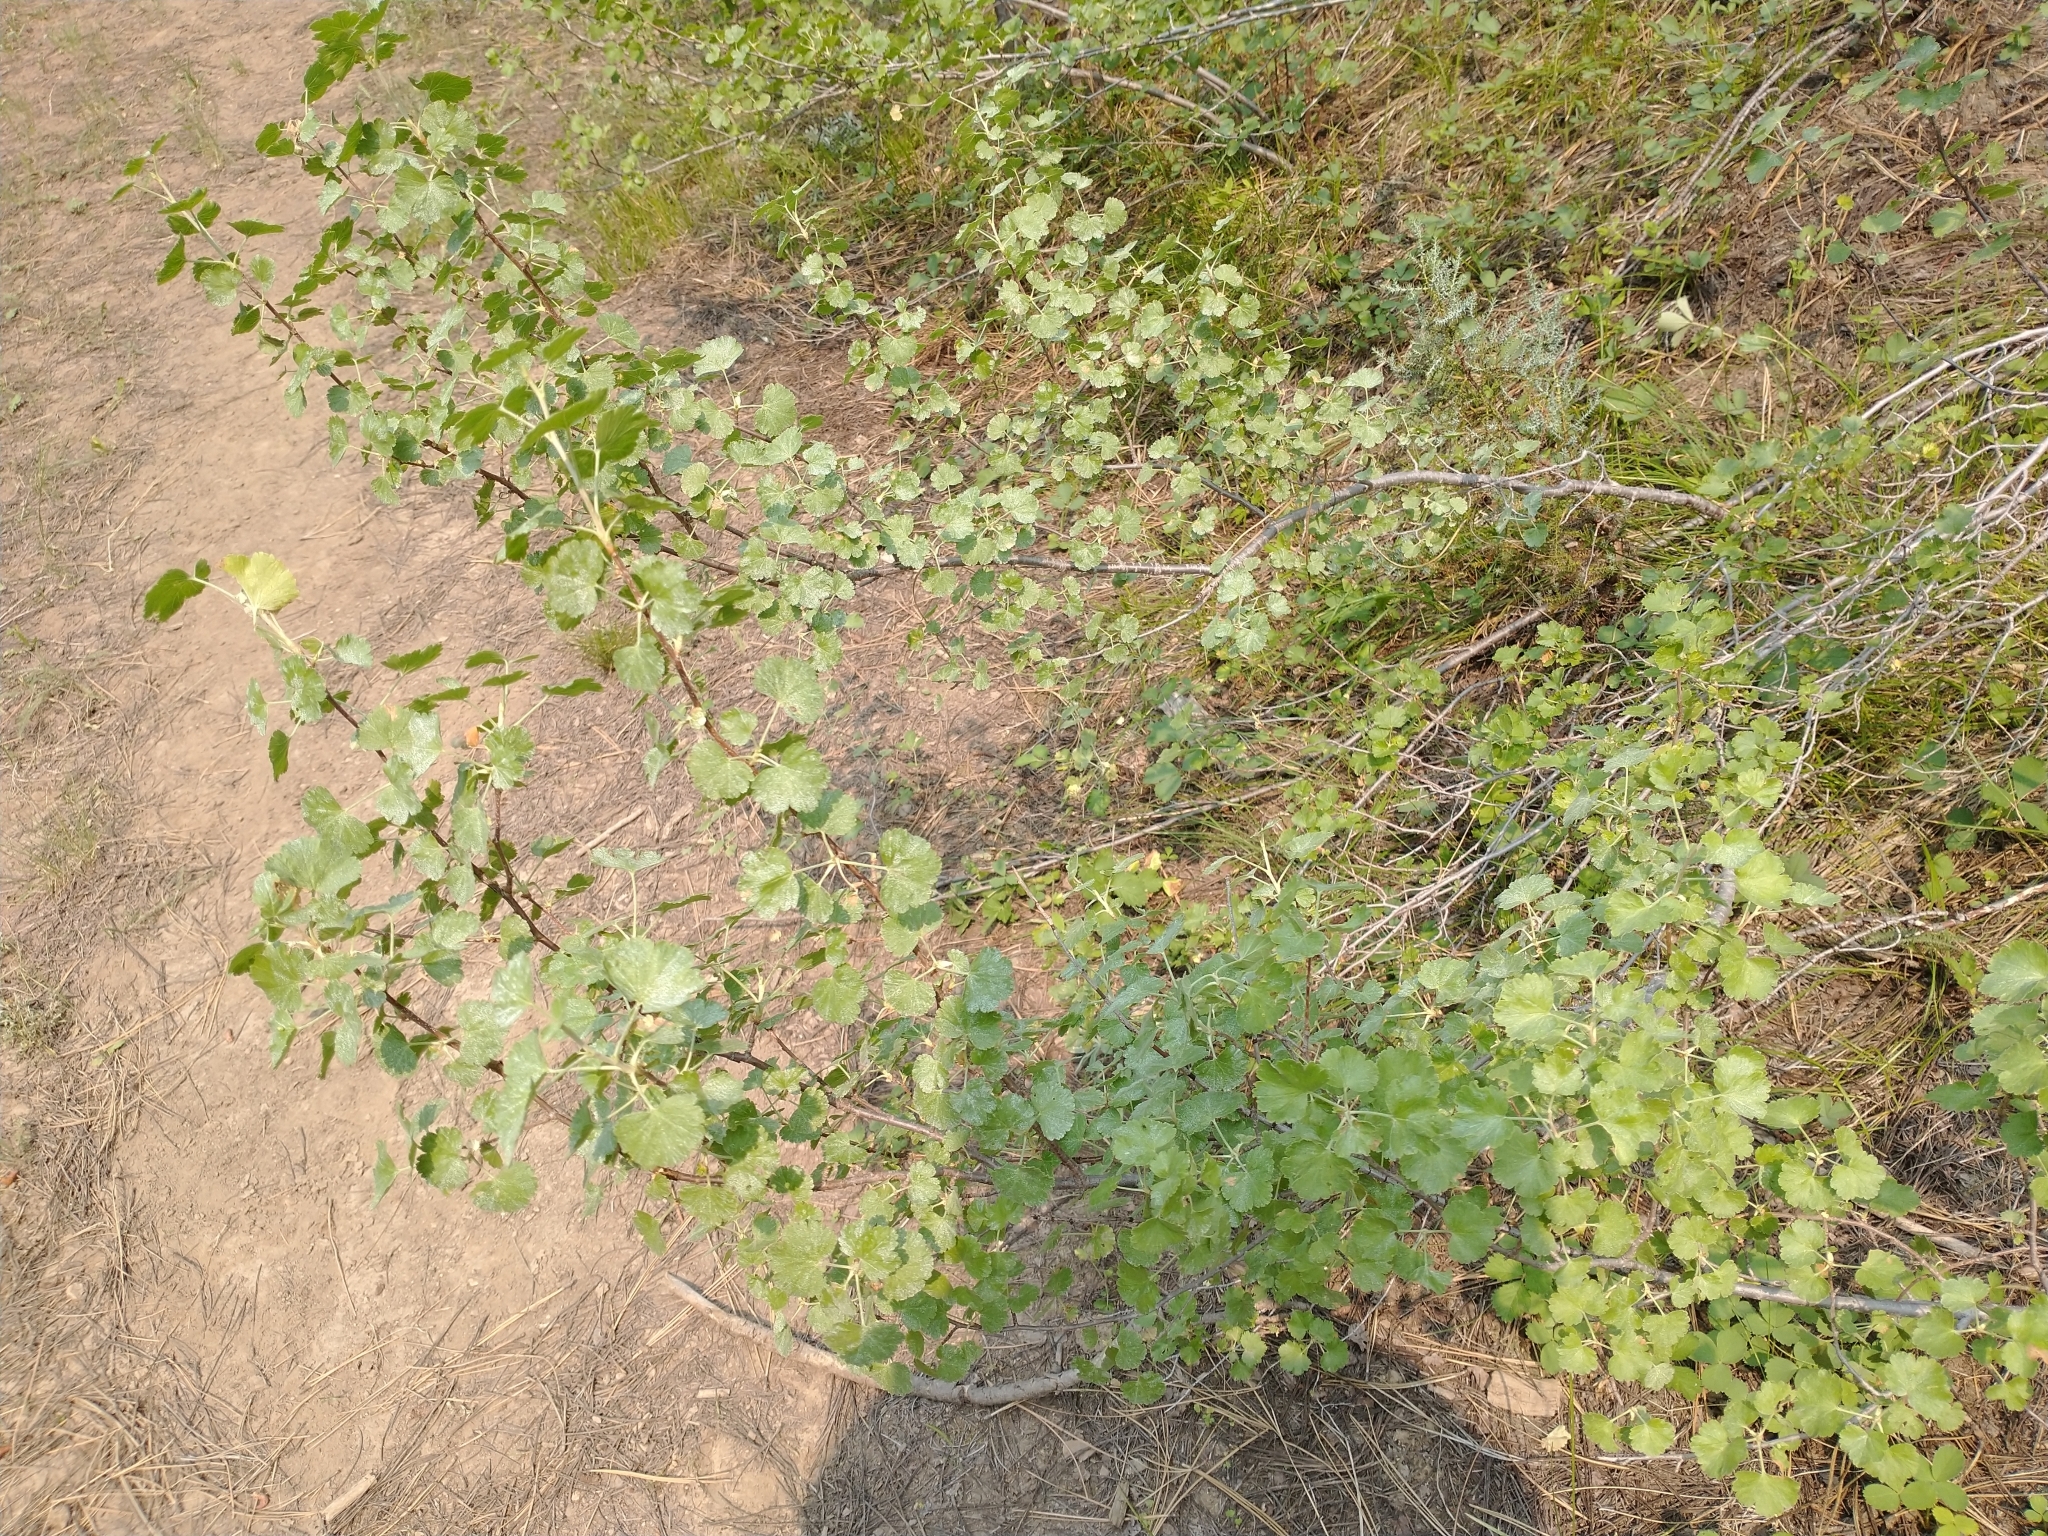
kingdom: Plantae
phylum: Tracheophyta
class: Magnoliopsida
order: Saxifragales
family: Grossulariaceae
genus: Ribes
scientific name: Ribes cereum
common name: Wax currant
